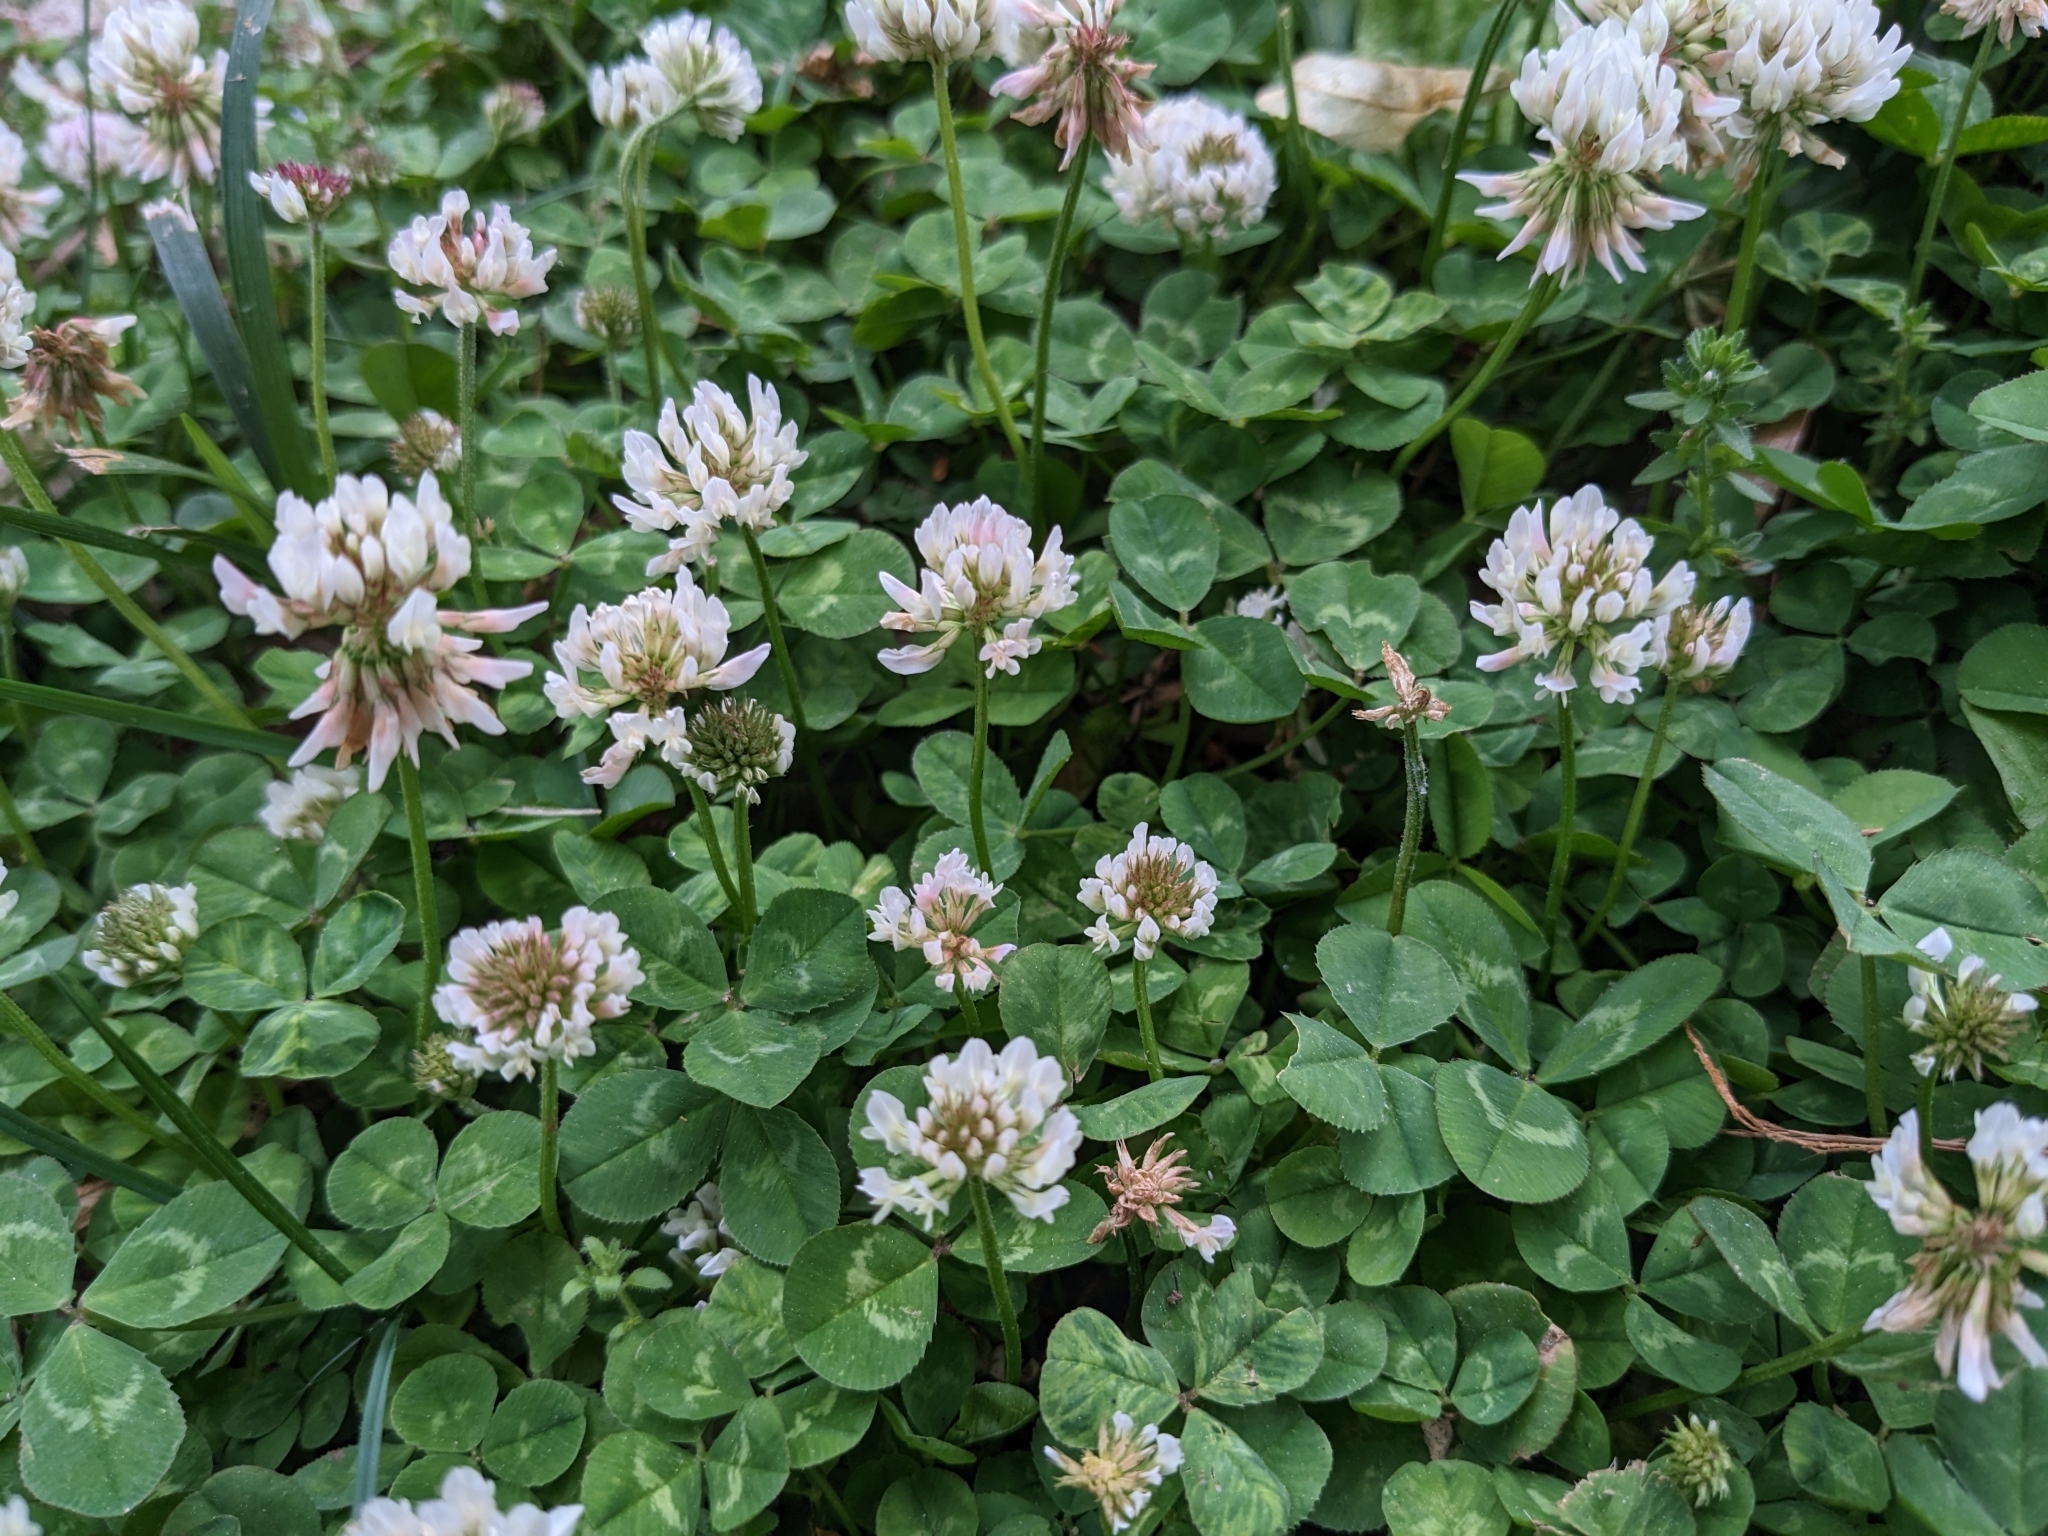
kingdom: Plantae
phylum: Tracheophyta
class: Magnoliopsida
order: Fabales
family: Fabaceae
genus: Trifolium
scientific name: Trifolium repens
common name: White clover
